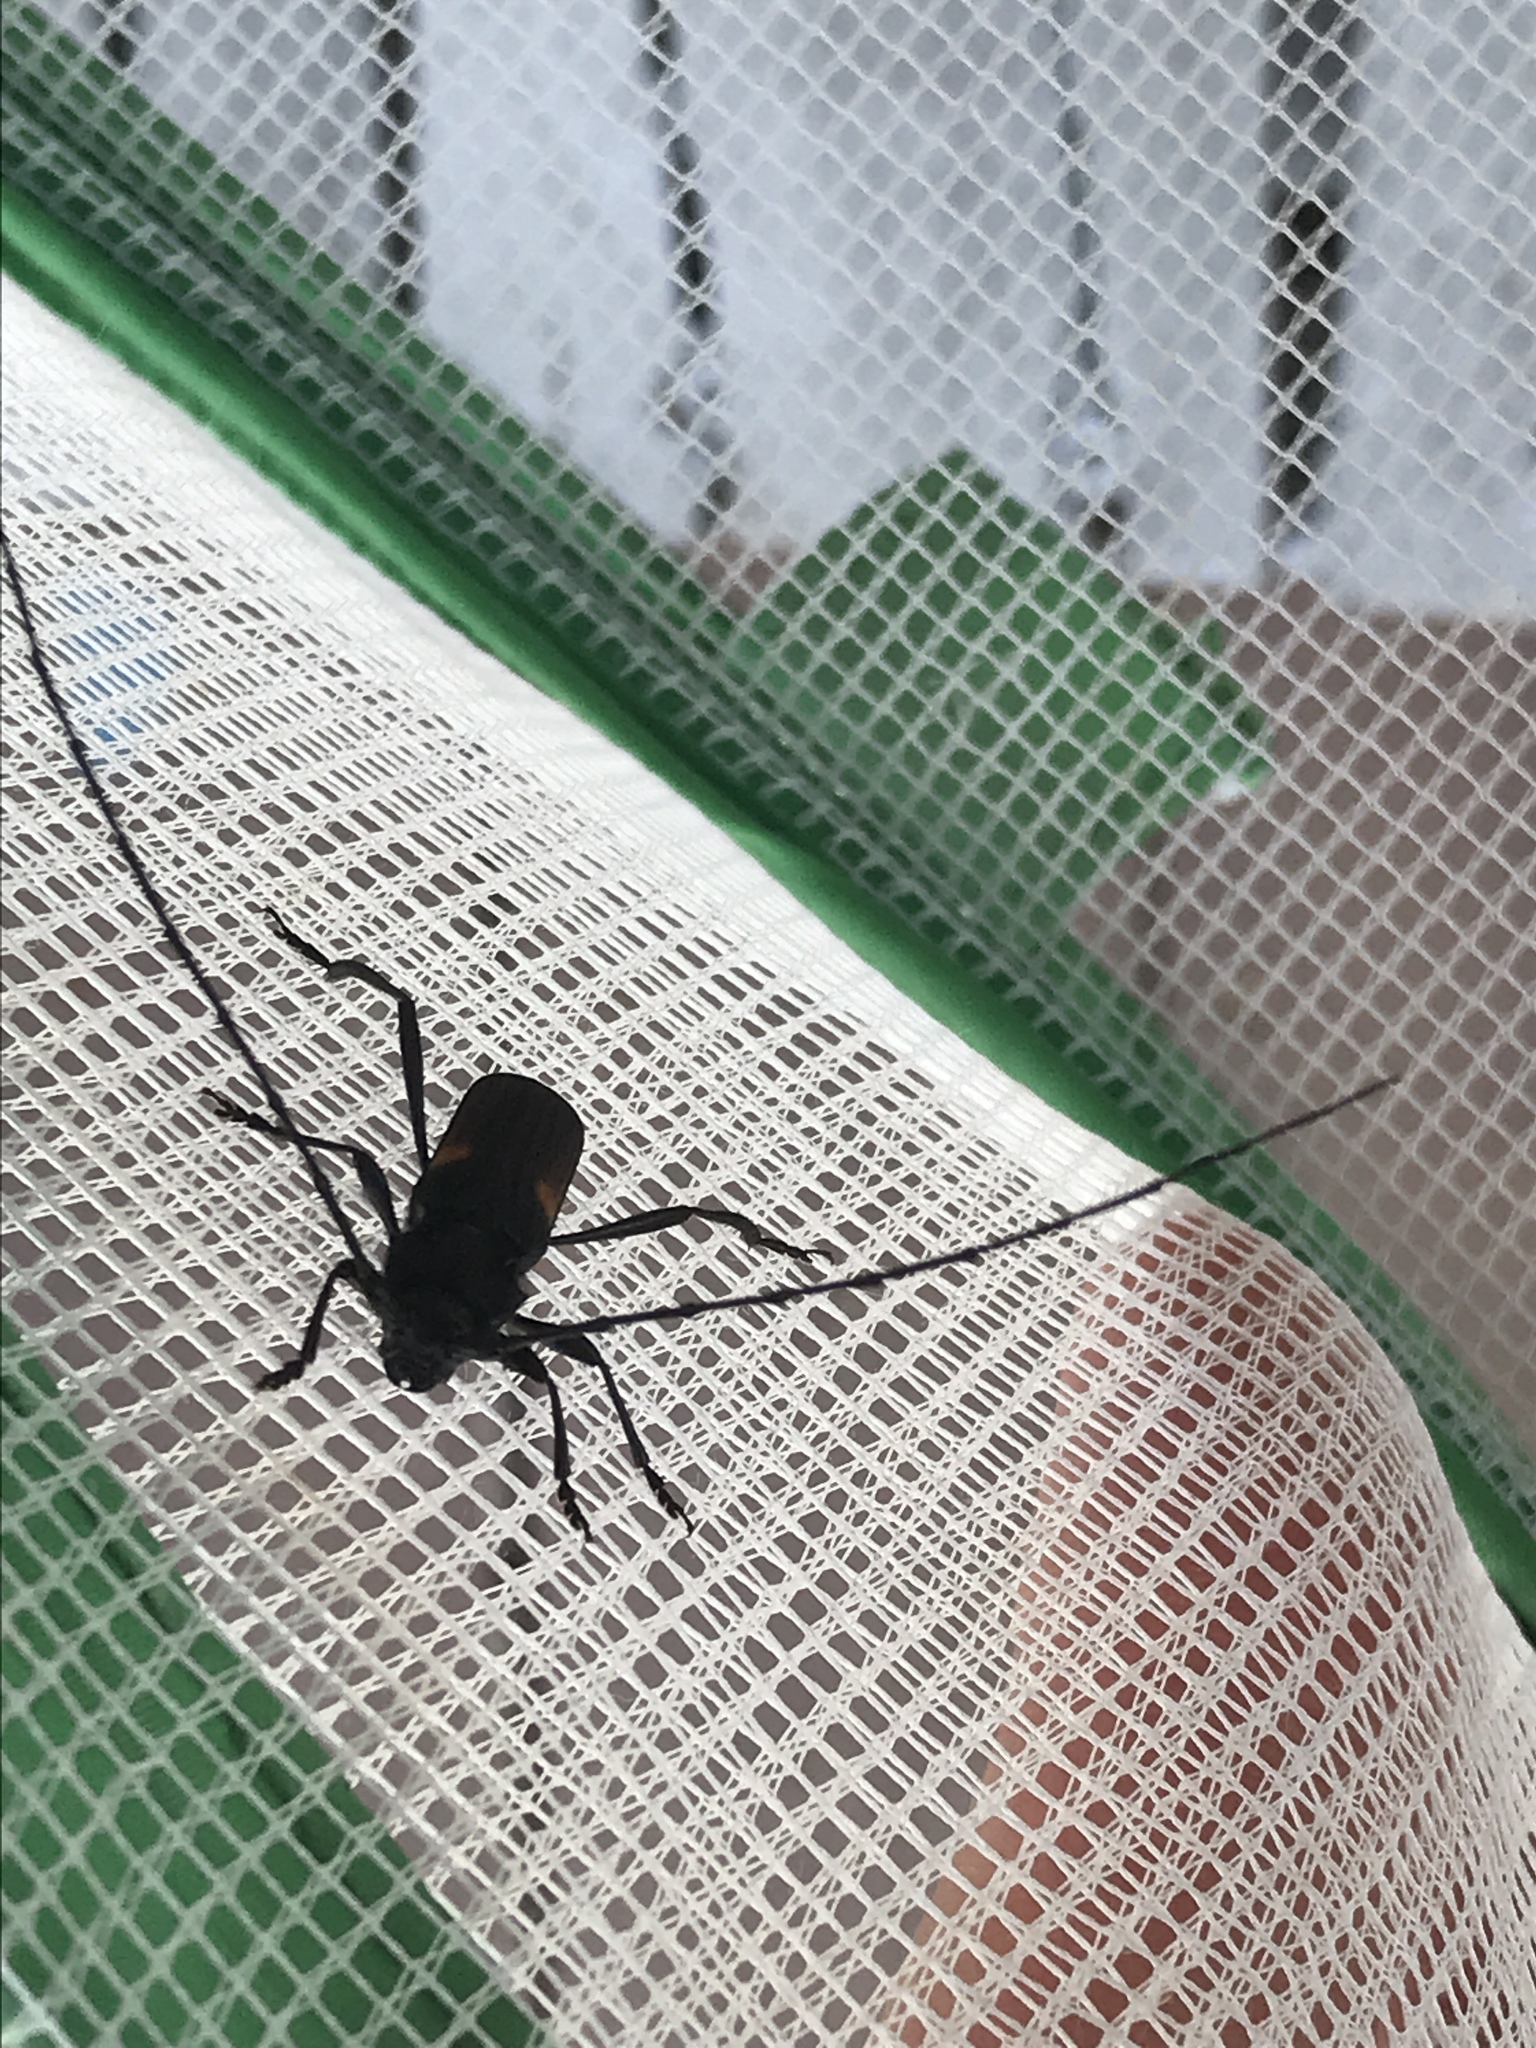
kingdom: Animalia
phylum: Arthropoda
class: Insecta
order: Coleoptera
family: Cerambycidae
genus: Tragidion
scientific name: Tragidion coquus
